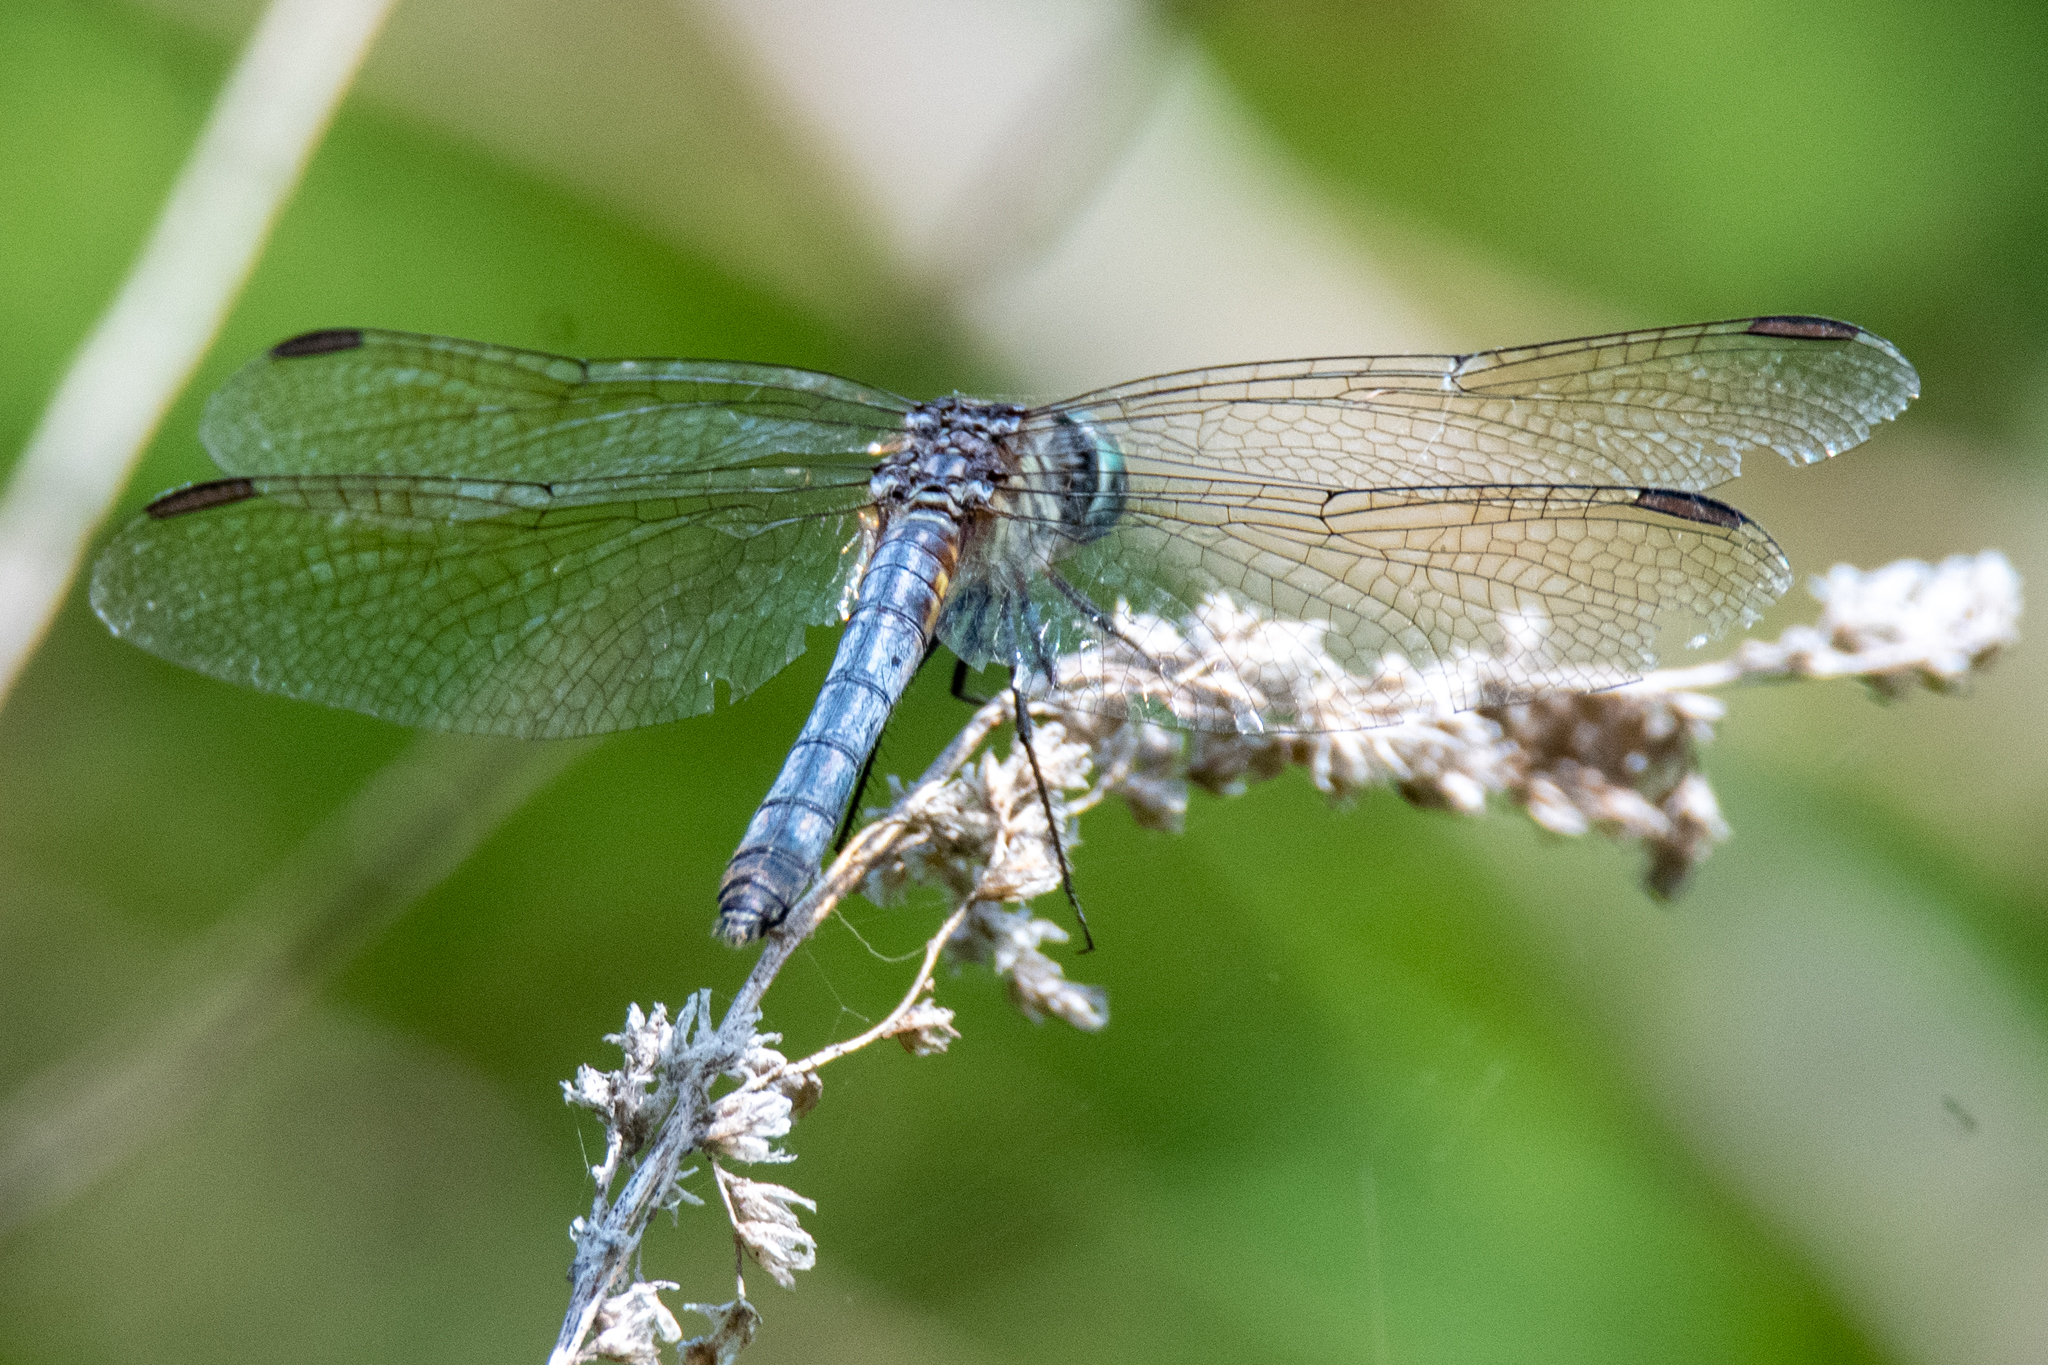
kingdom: Animalia
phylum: Arthropoda
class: Insecta
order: Odonata
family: Libellulidae
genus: Pachydiplax
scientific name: Pachydiplax longipennis
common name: Blue dasher
